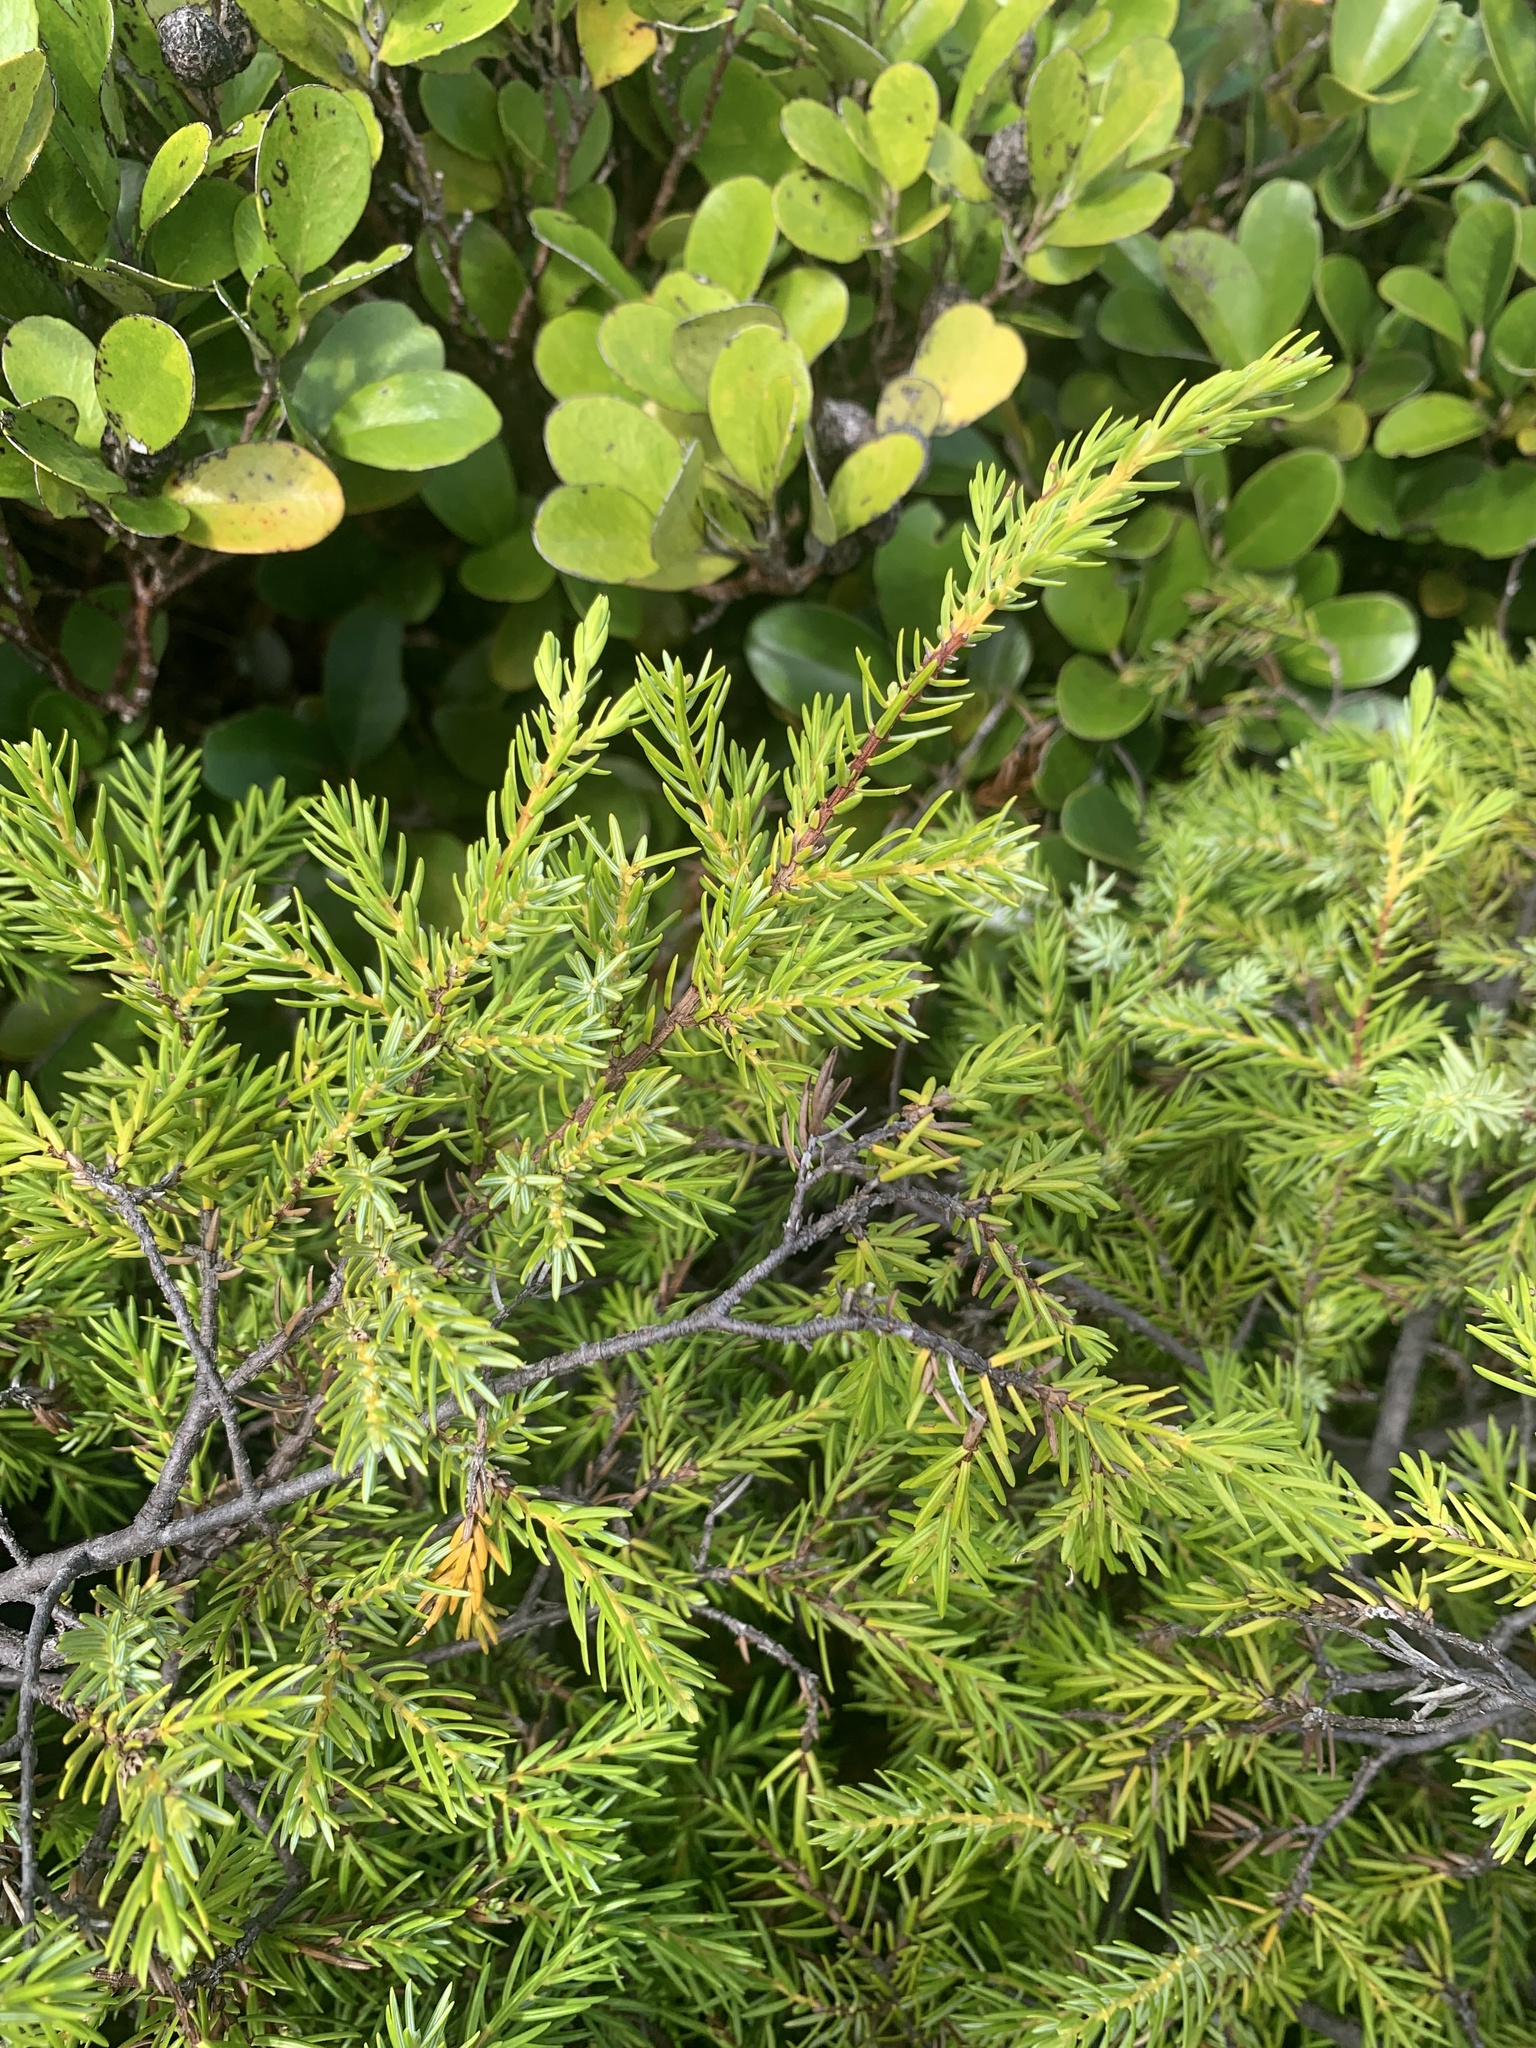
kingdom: Plantae
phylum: Tracheophyta
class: Pinopsida
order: Pinales
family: Cupressaceae
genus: Juniperus
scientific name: Juniperus taxifolia
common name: Fitcheisi
